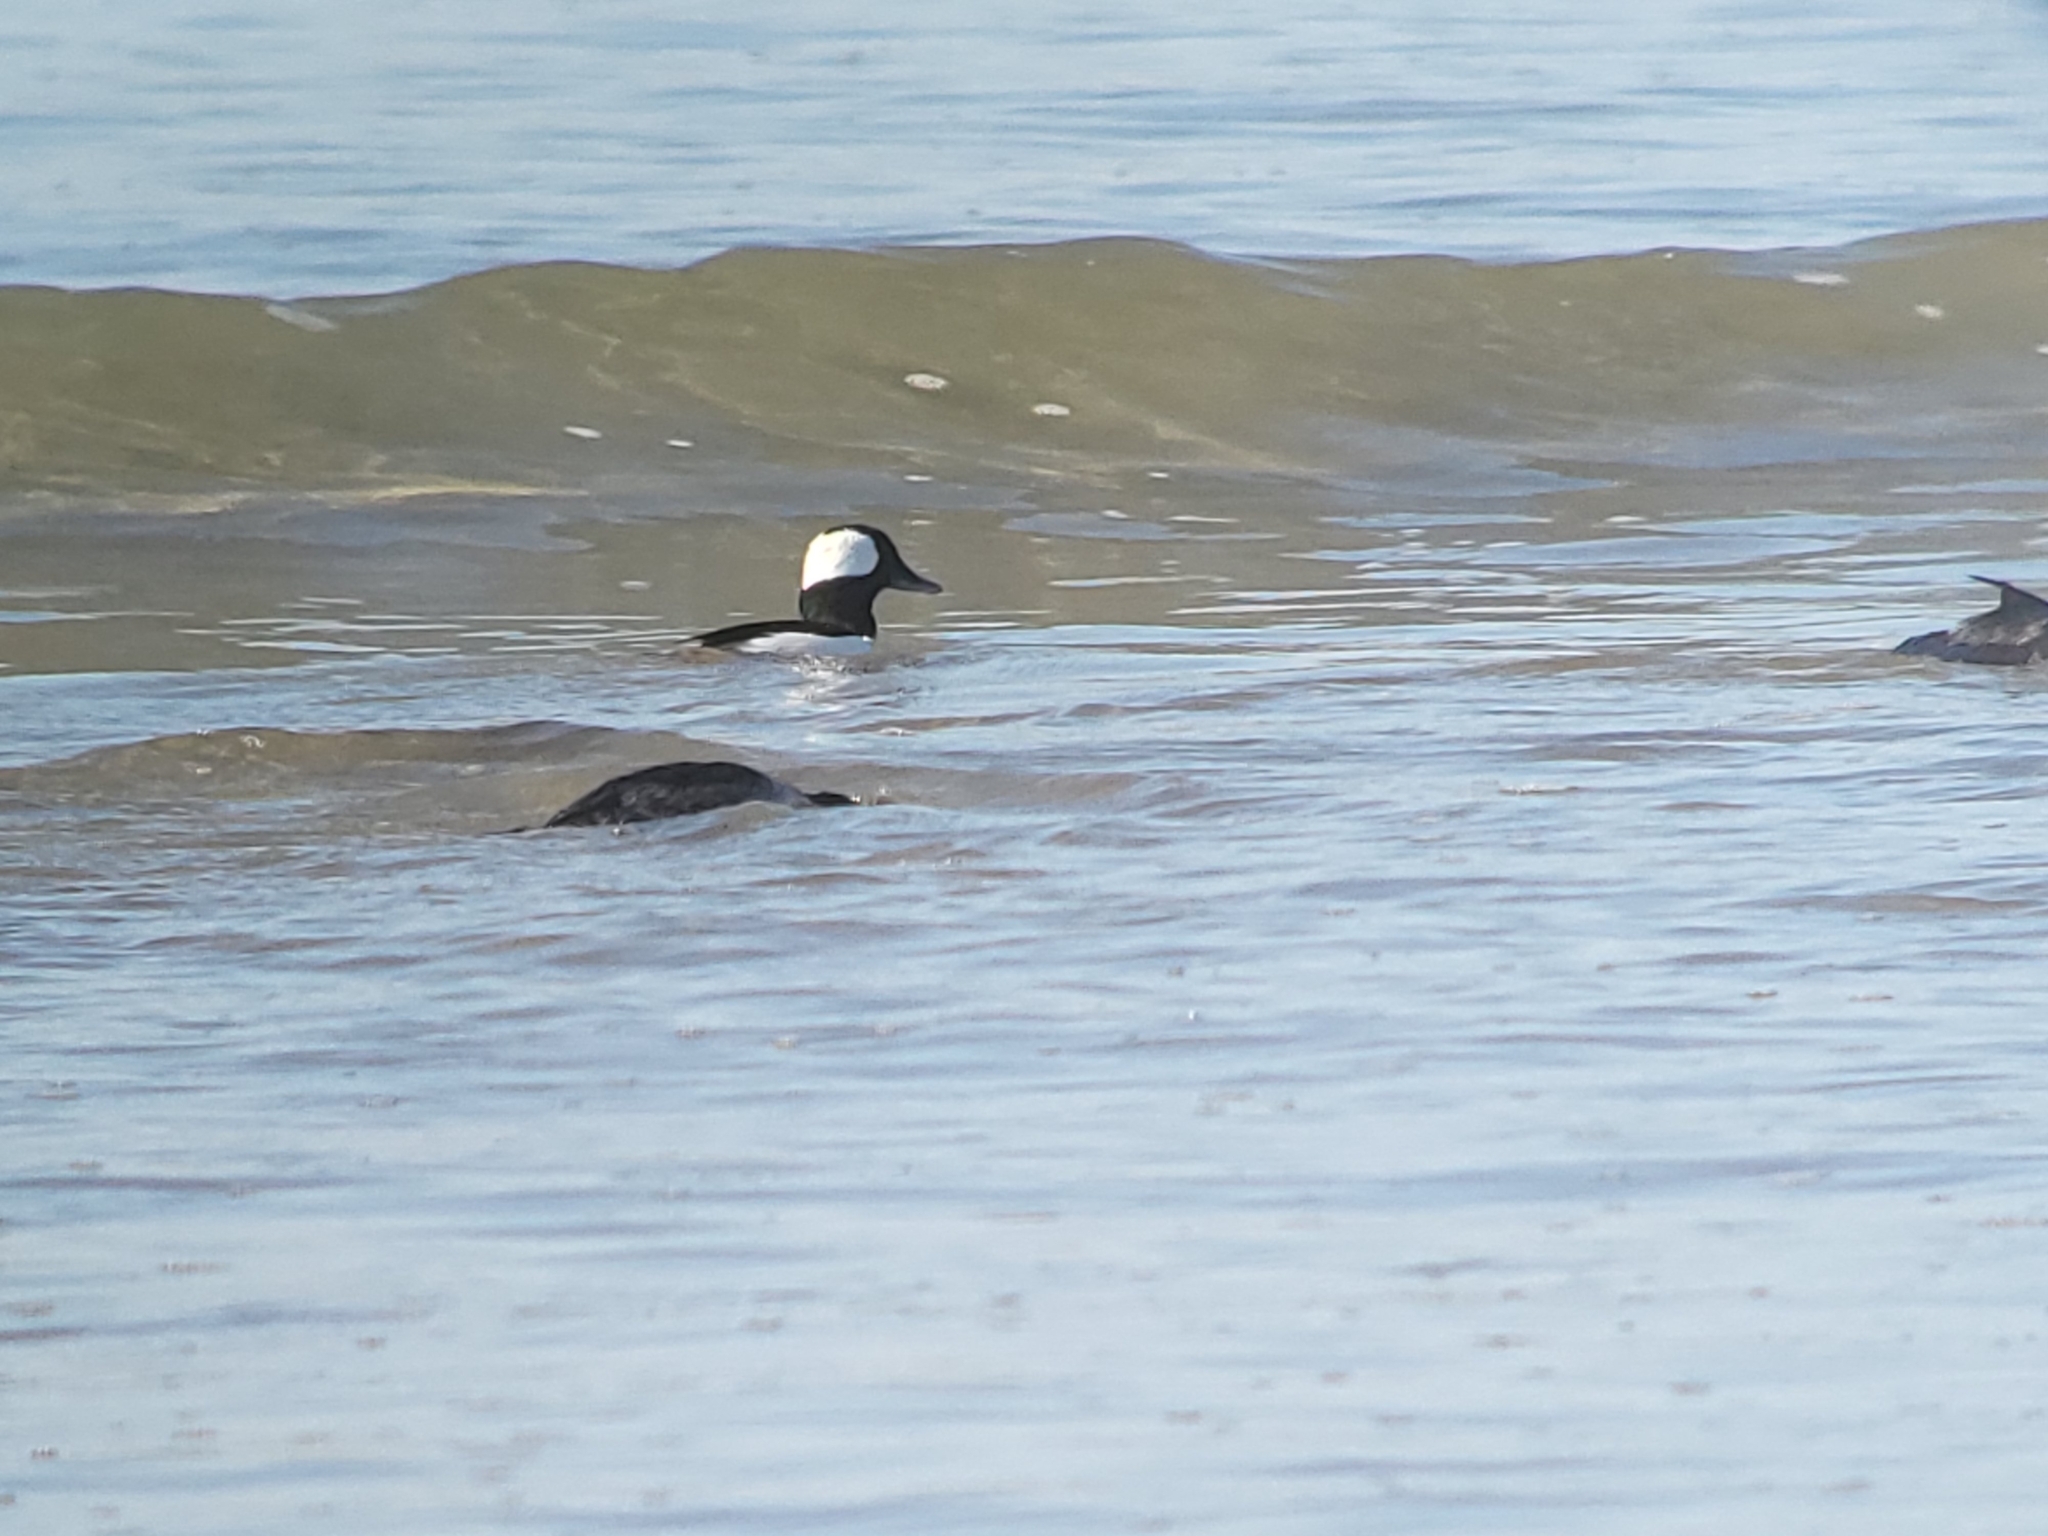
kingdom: Animalia
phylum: Chordata
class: Aves
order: Anseriformes
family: Anatidae
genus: Bucephala
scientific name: Bucephala albeola
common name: Bufflehead
